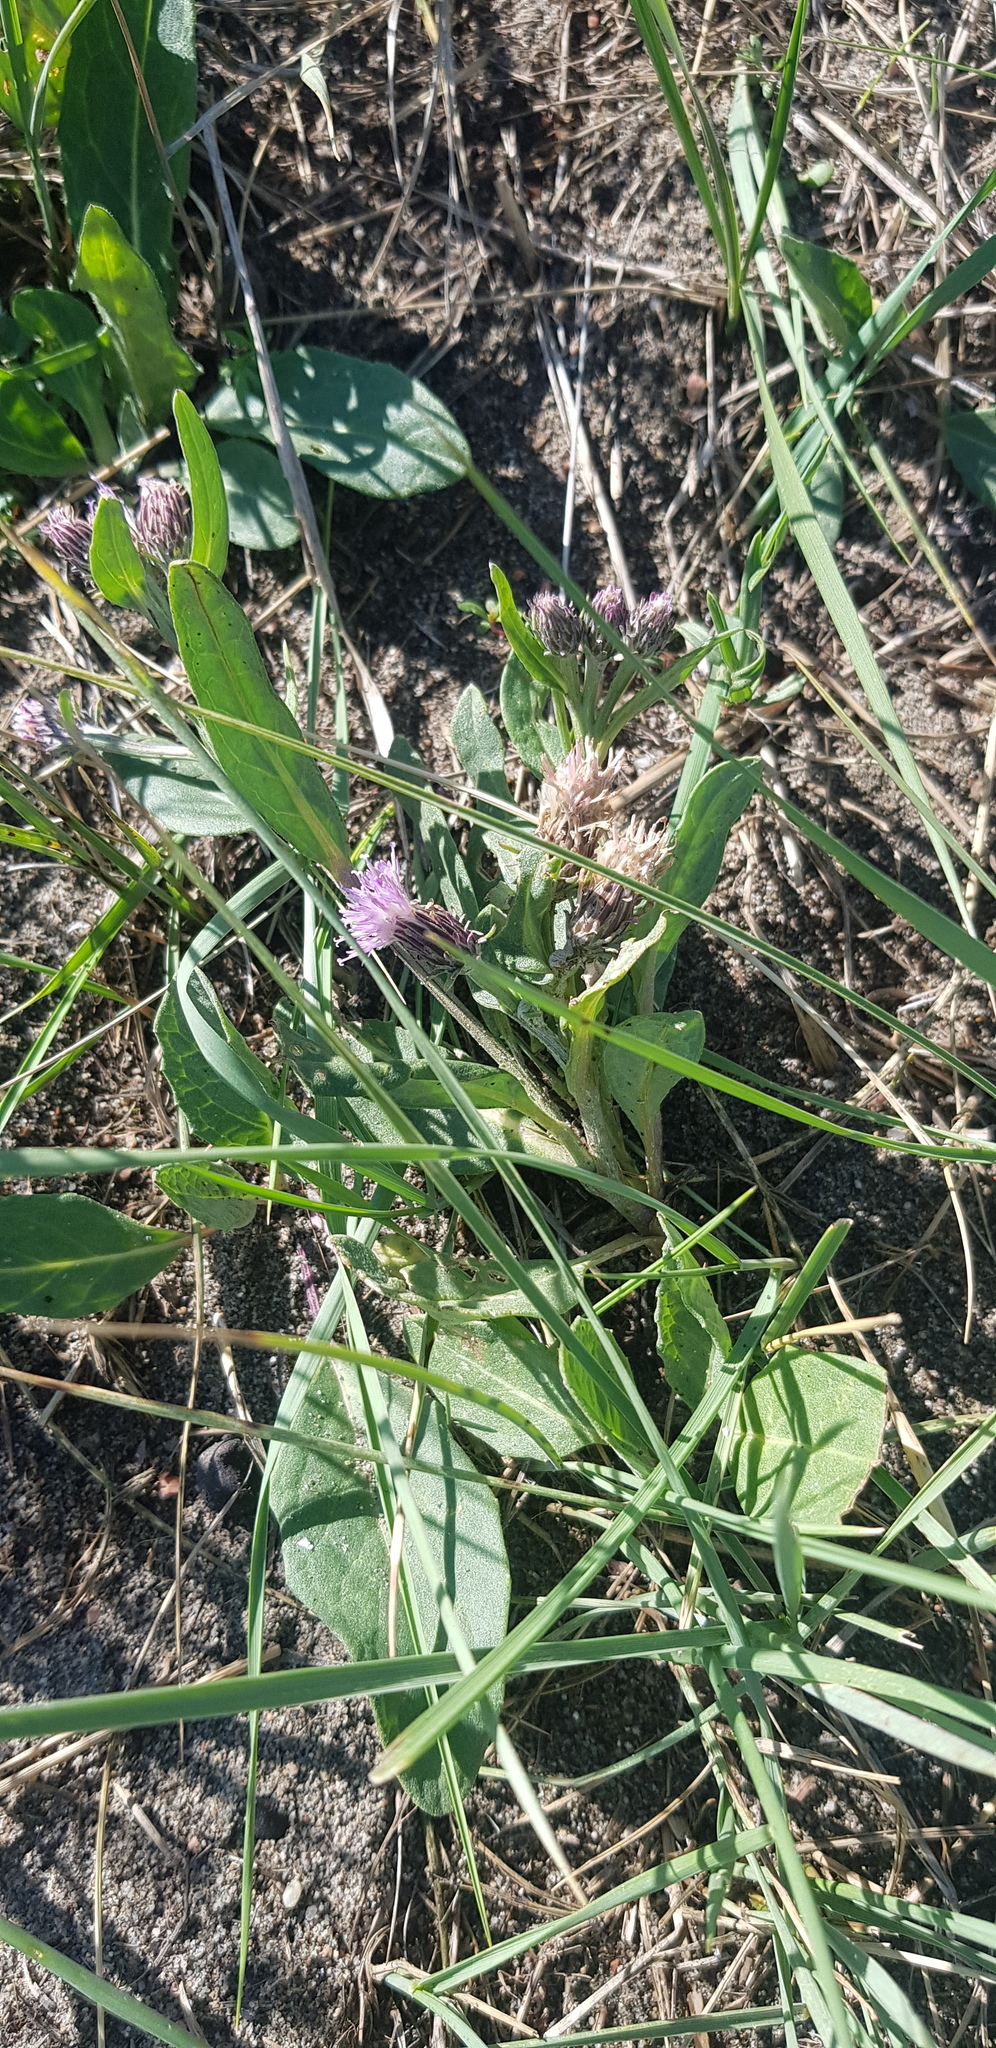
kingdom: Plantae
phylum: Tracheophyta
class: Magnoliopsida
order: Asterales
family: Asteraceae
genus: Saussurea
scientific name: Saussurea amara
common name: Alberta sawwort
